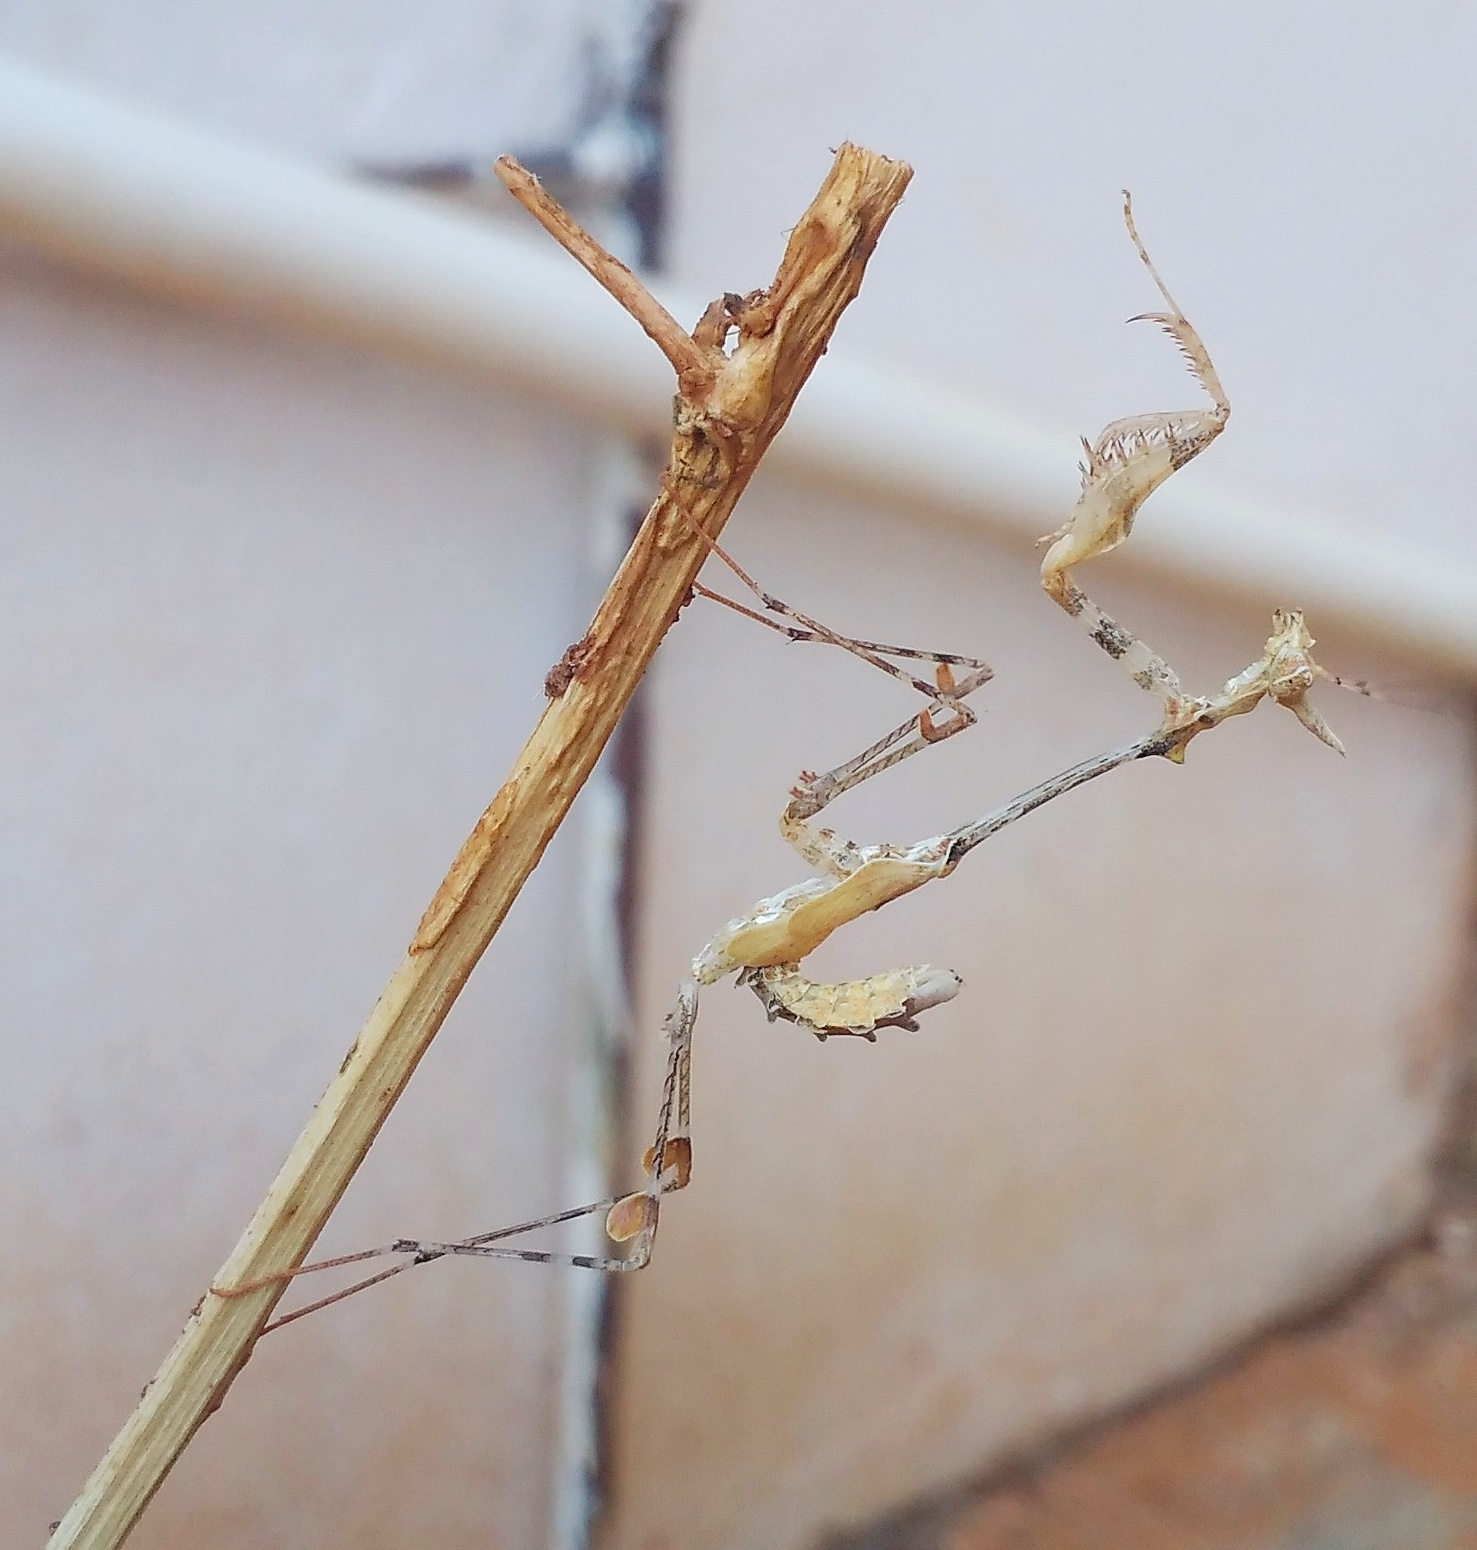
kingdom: Animalia
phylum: Arthropoda
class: Insecta
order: Mantodea
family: Hymenopodidae
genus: Sibylla
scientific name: Sibylla pretiosa
